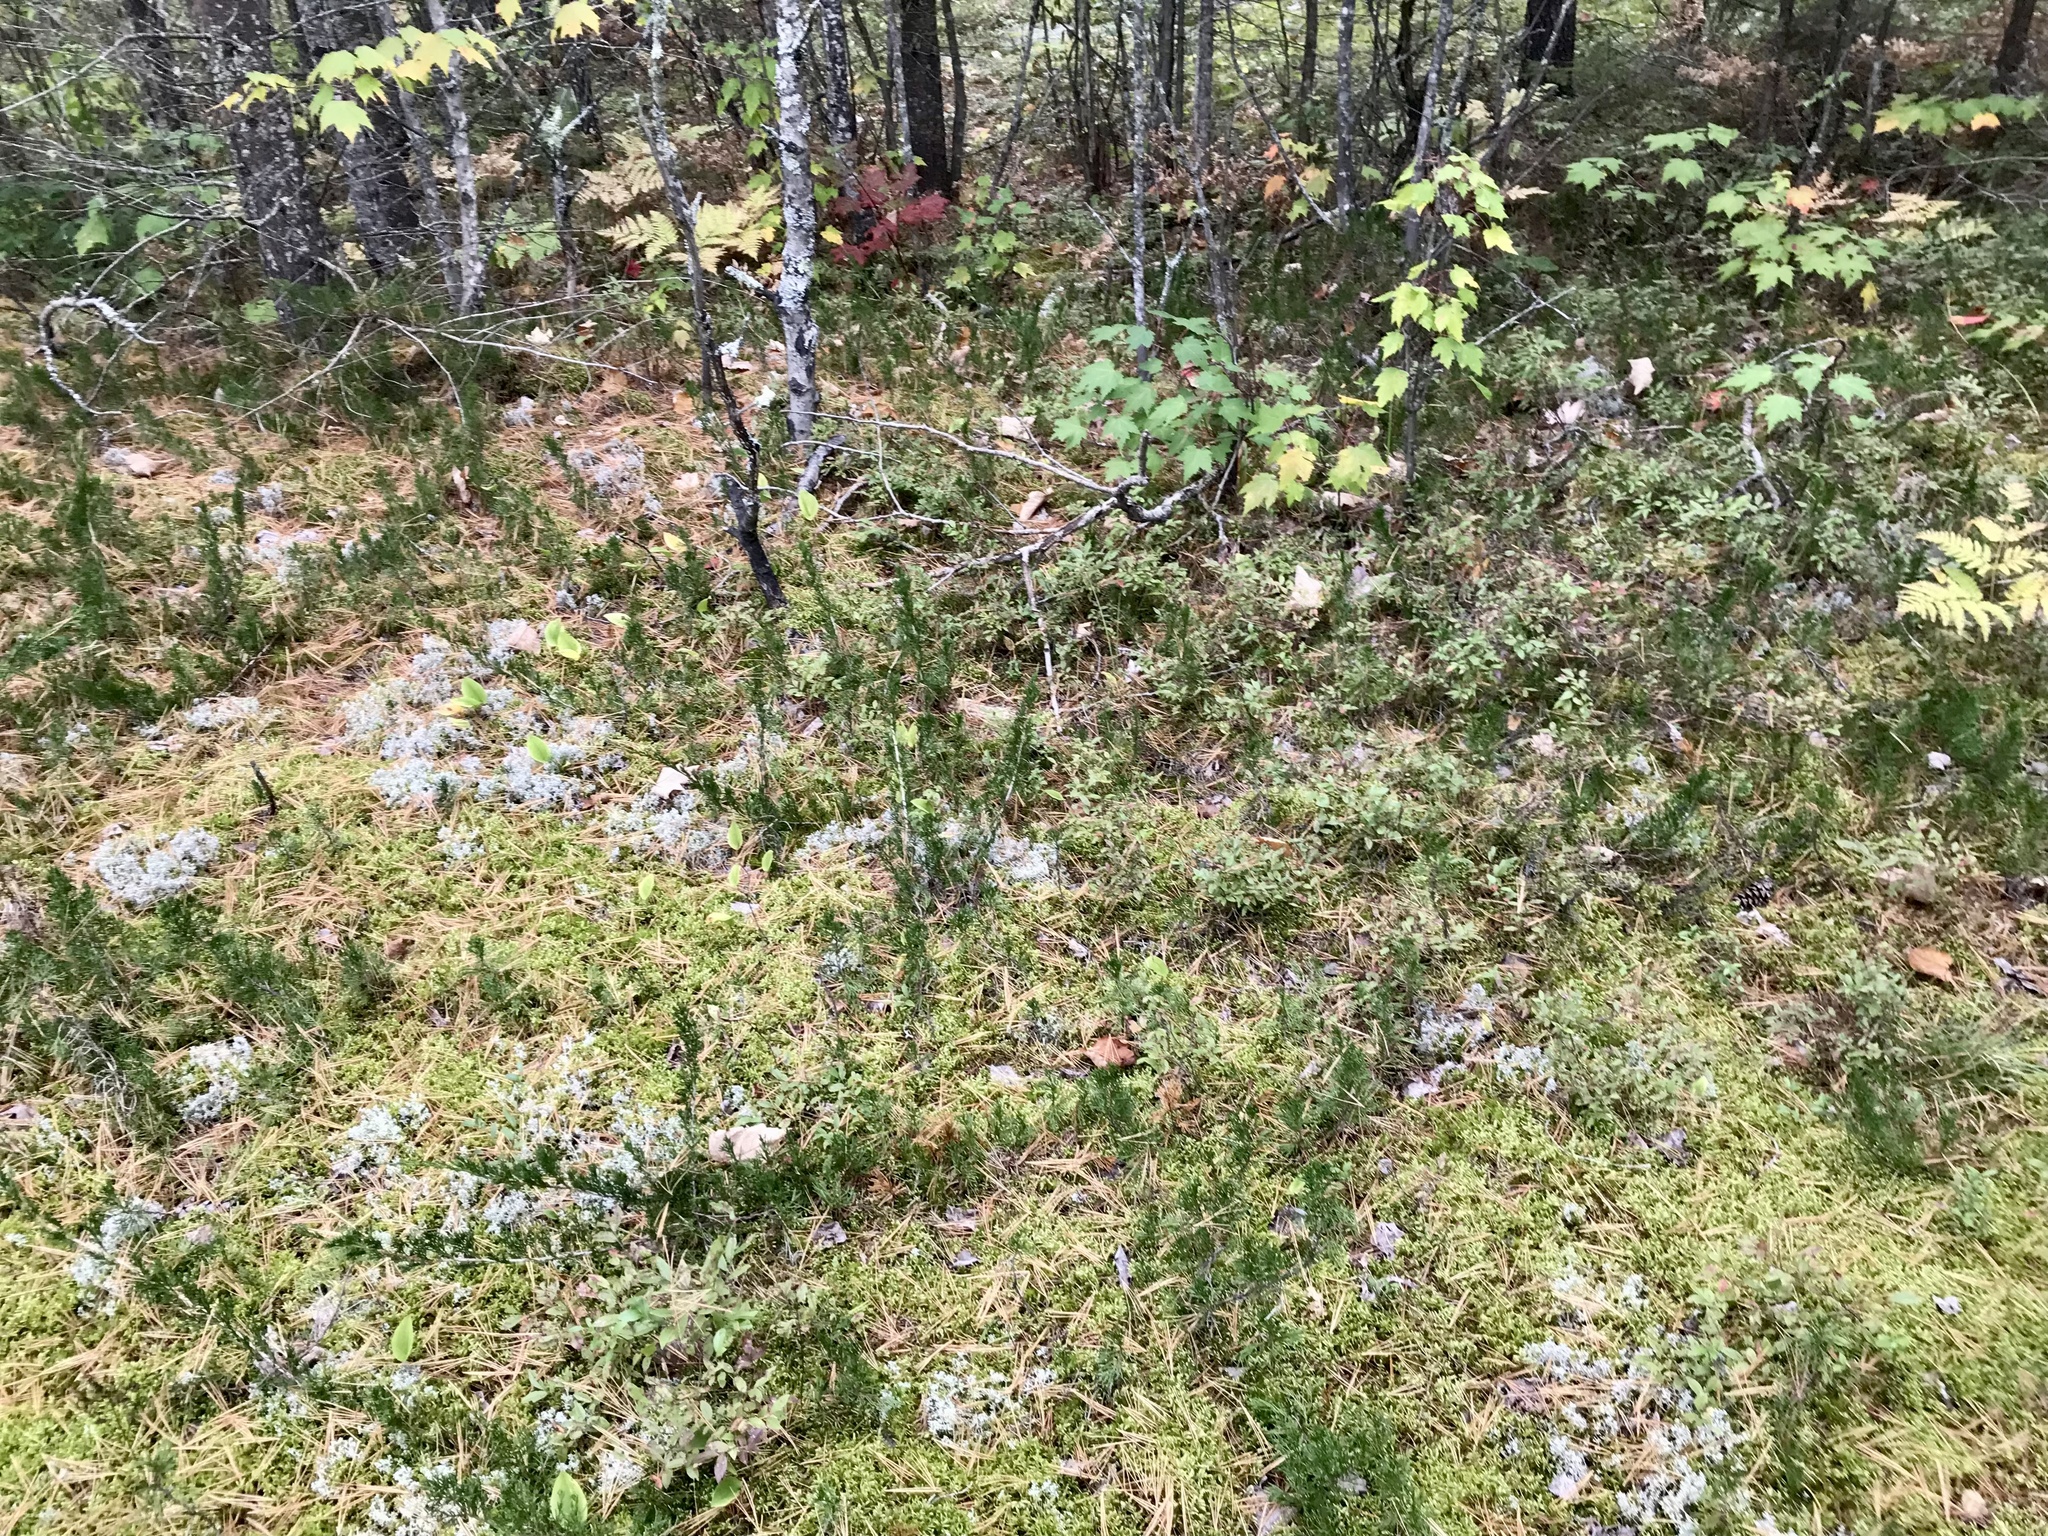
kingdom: Plantae
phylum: Tracheophyta
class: Pinopsida
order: Pinales
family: Cupressaceae
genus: Juniperus
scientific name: Juniperus horizontalis
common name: Creeping juniper
